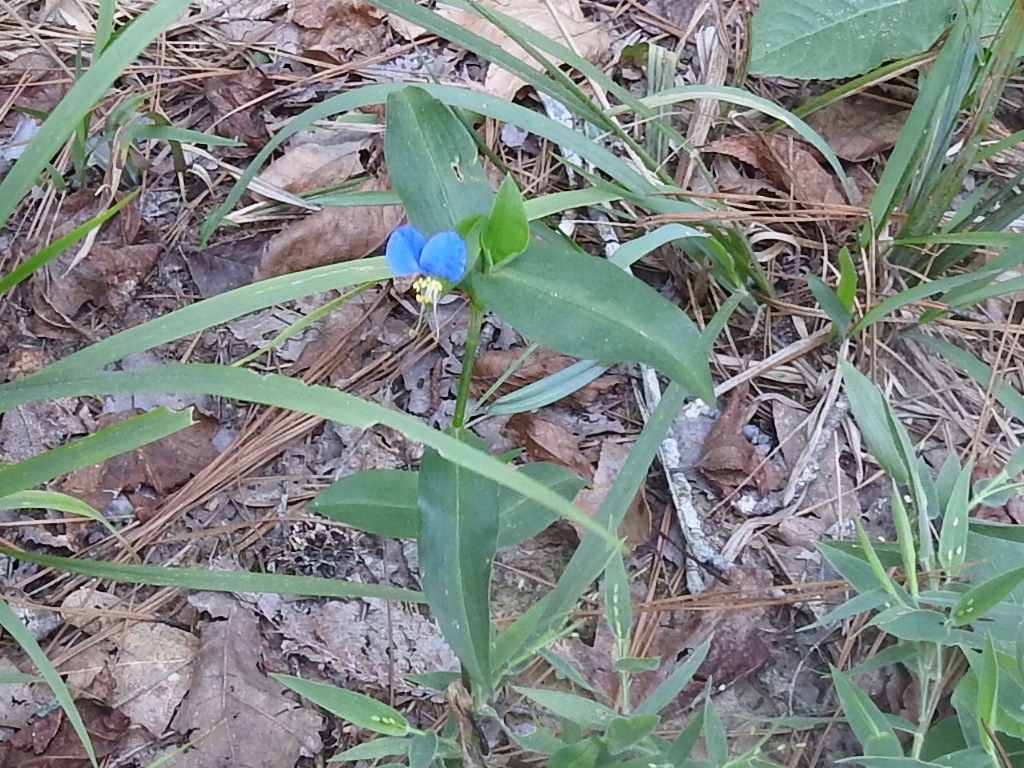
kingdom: Plantae
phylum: Tracheophyta
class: Liliopsida
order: Commelinales
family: Commelinaceae
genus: Commelina
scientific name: Commelina erecta
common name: Blousel blommetjie
